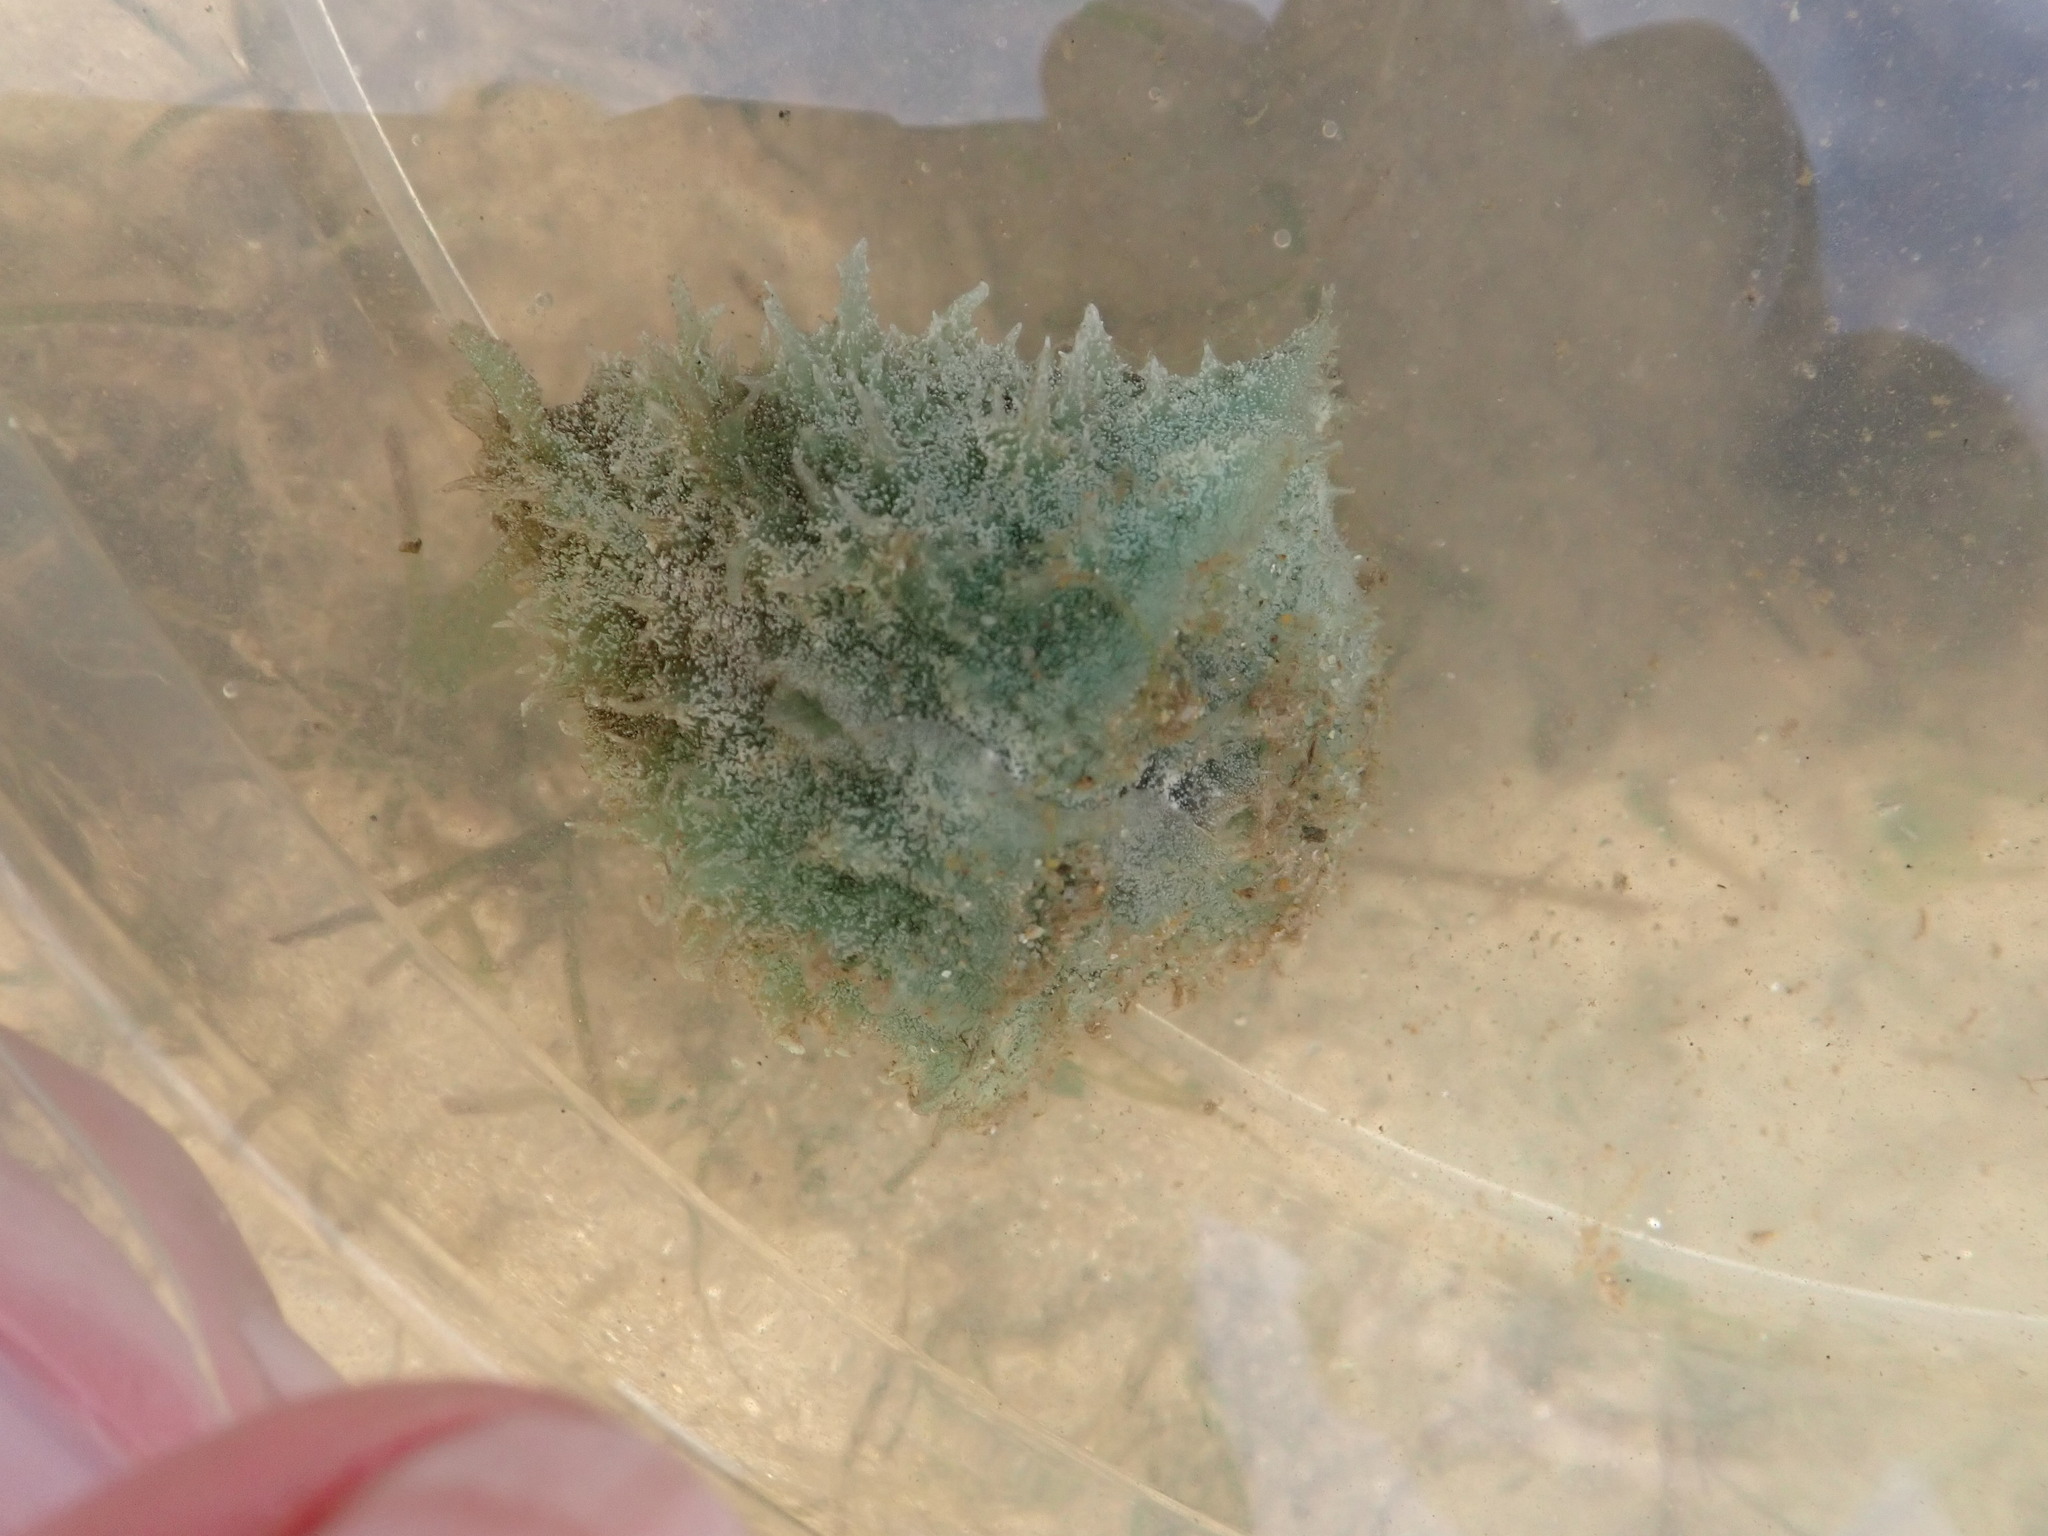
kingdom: Animalia
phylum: Mollusca
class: Gastropoda
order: Aplysiida
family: Aplysiidae
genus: Dolabella
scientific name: Dolabella auricularia
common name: Blunt-end seahare
